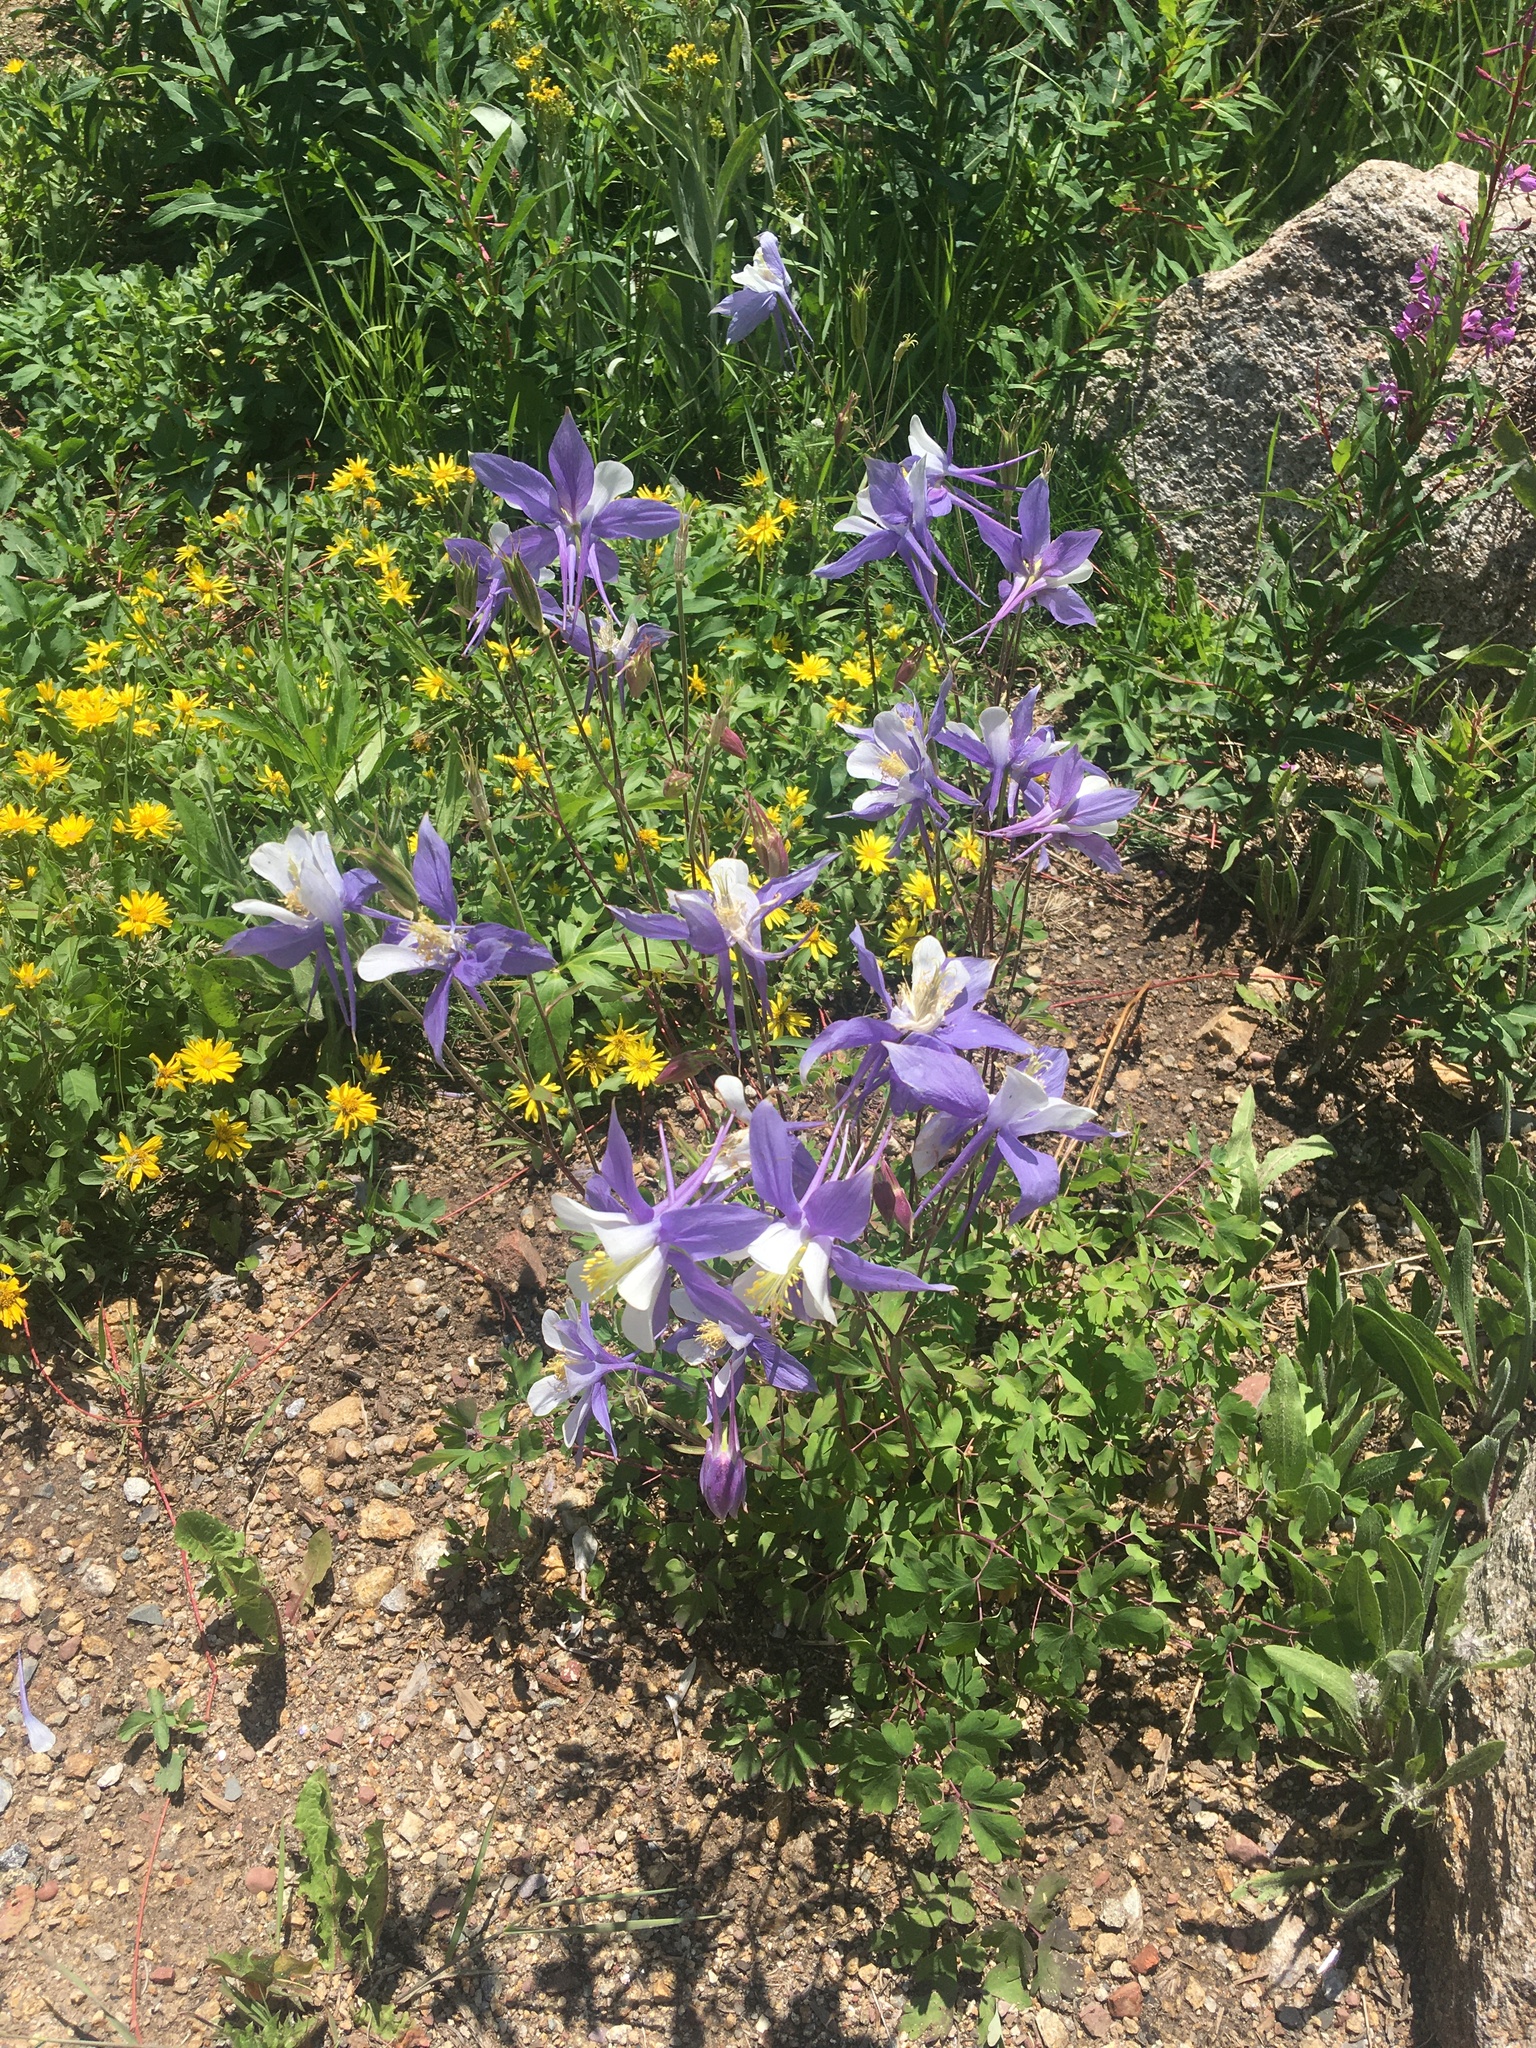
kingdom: Plantae
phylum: Tracheophyta
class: Magnoliopsida
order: Ranunculales
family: Ranunculaceae
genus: Aquilegia
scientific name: Aquilegia coerulea
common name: Rocky mountain columbine
